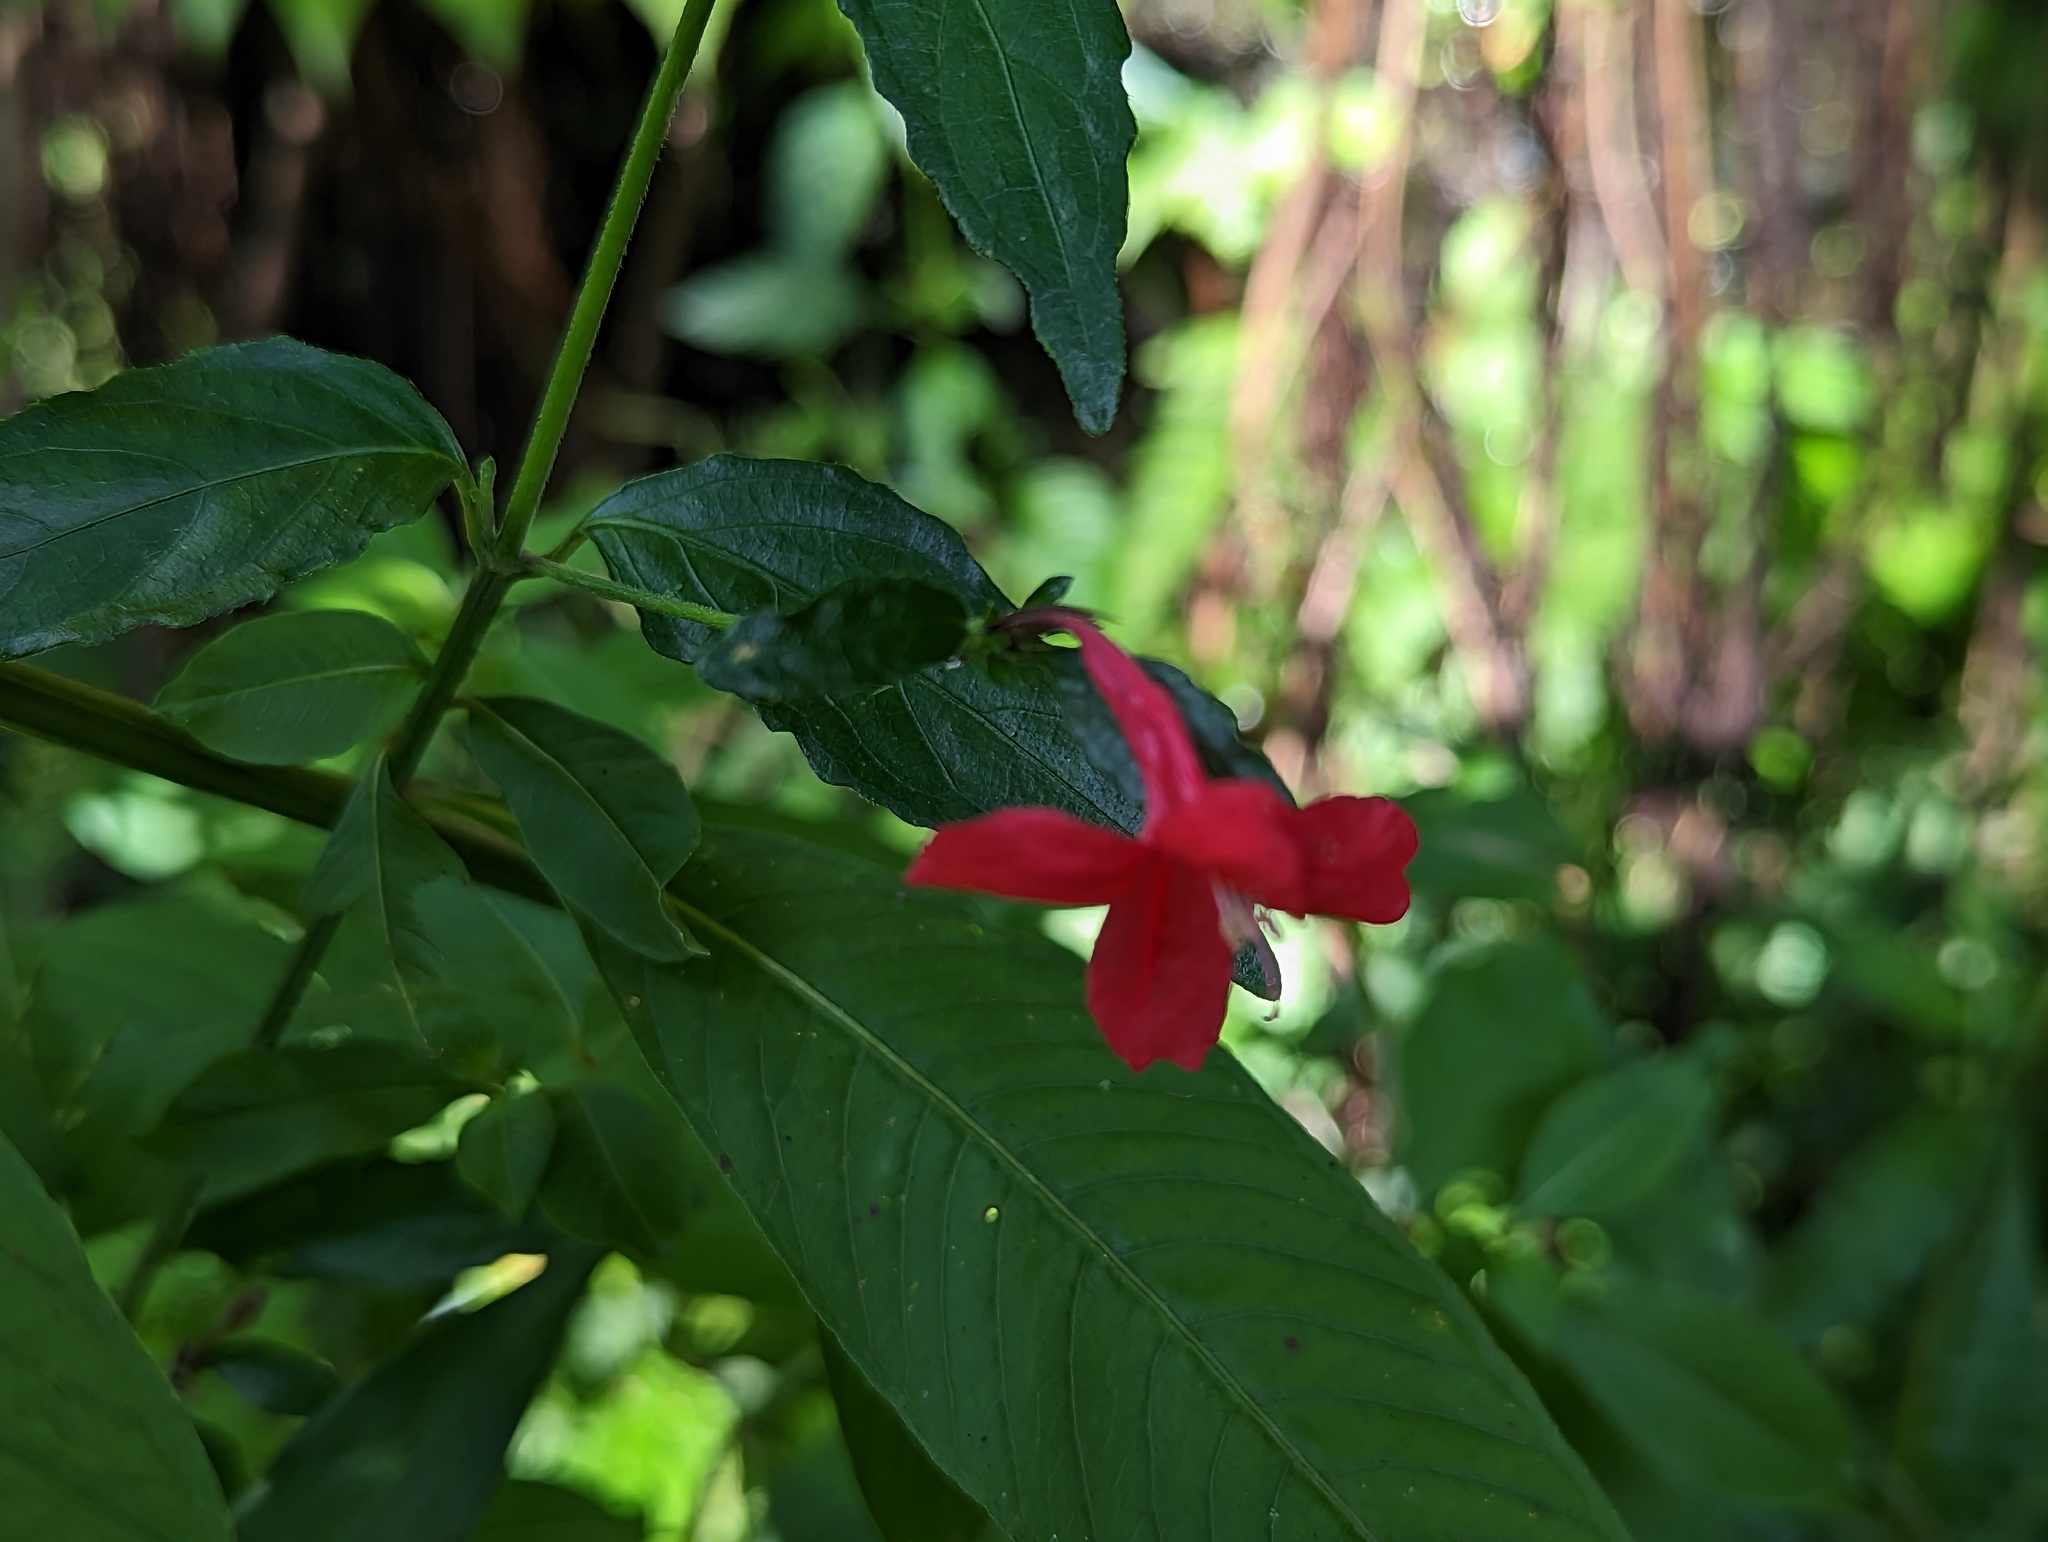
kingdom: Plantae
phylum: Tracheophyta
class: Magnoliopsida
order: Lamiales
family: Acanthaceae
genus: Ruellia
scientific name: Ruellia coccinea
